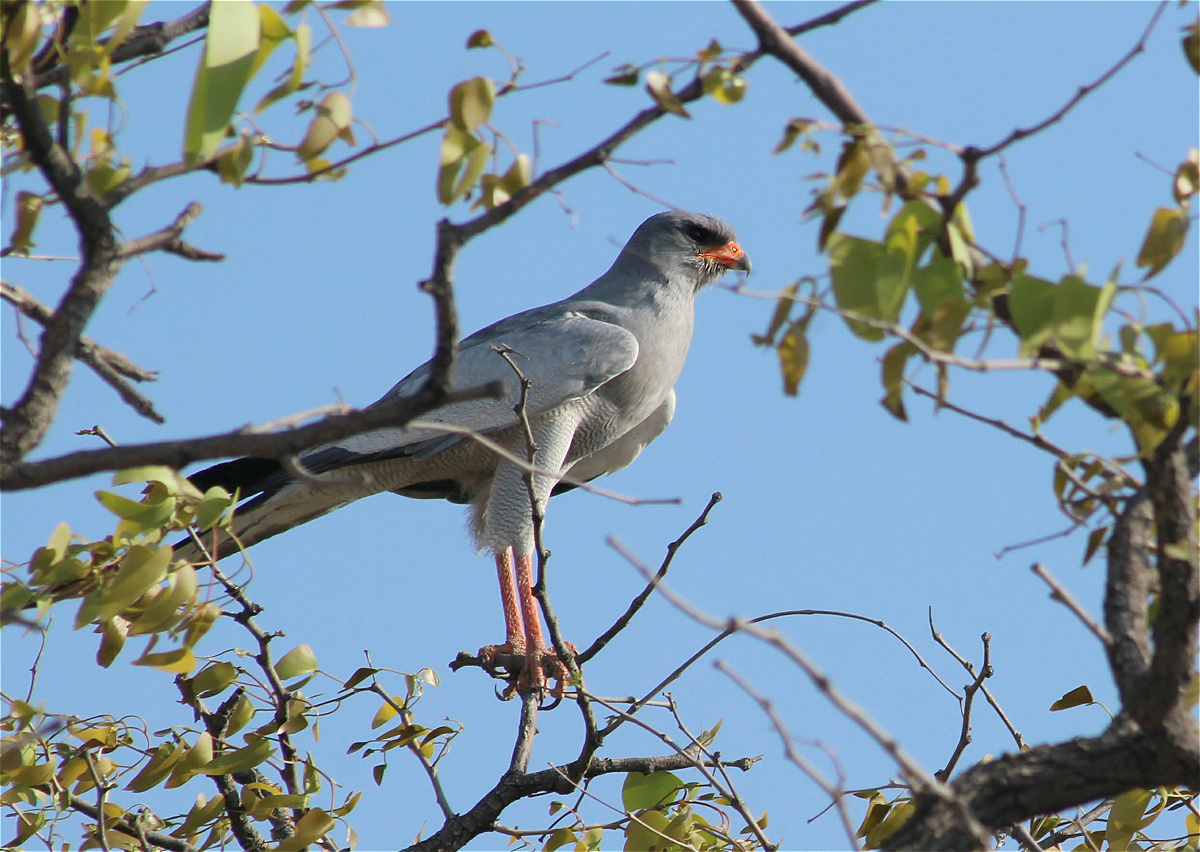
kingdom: Animalia
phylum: Chordata
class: Aves
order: Accipitriformes
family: Accipitridae
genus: Melierax
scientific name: Melierax canorus
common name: Pale chanting-goshawk
